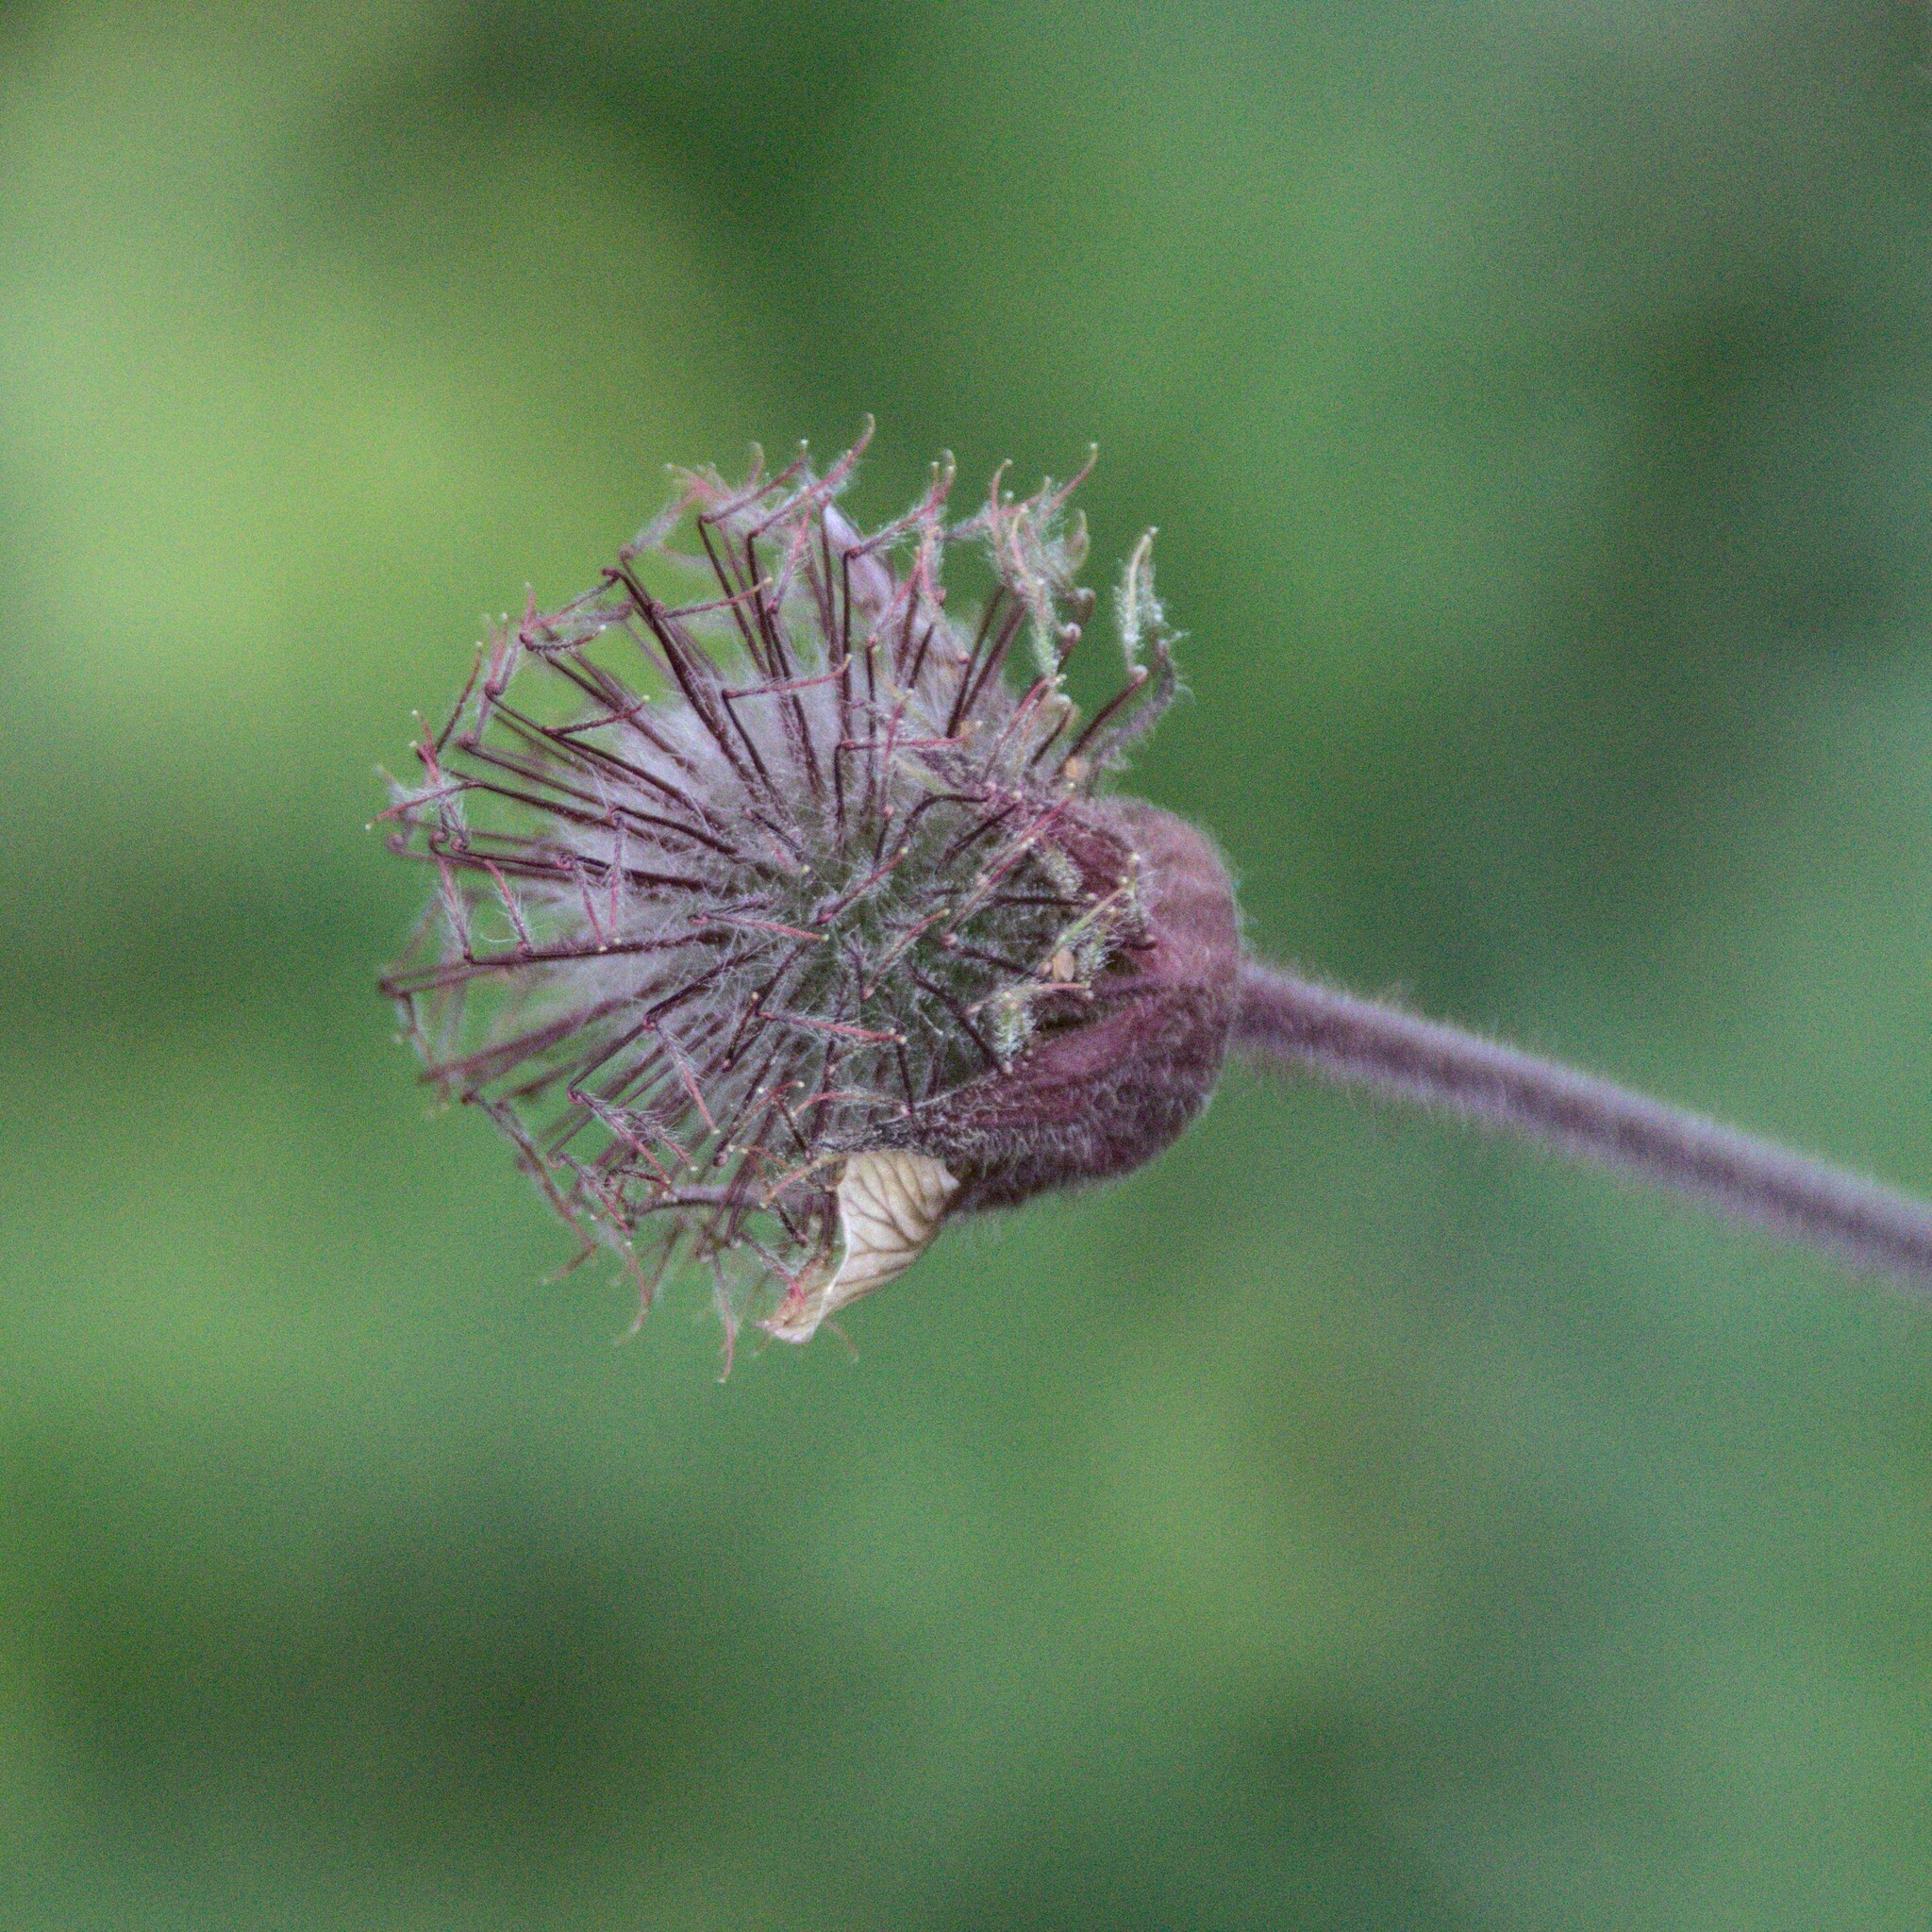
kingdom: Plantae
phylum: Tracheophyta
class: Magnoliopsida
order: Rosales
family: Rosaceae
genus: Geum
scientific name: Geum rivale
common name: Water avens
